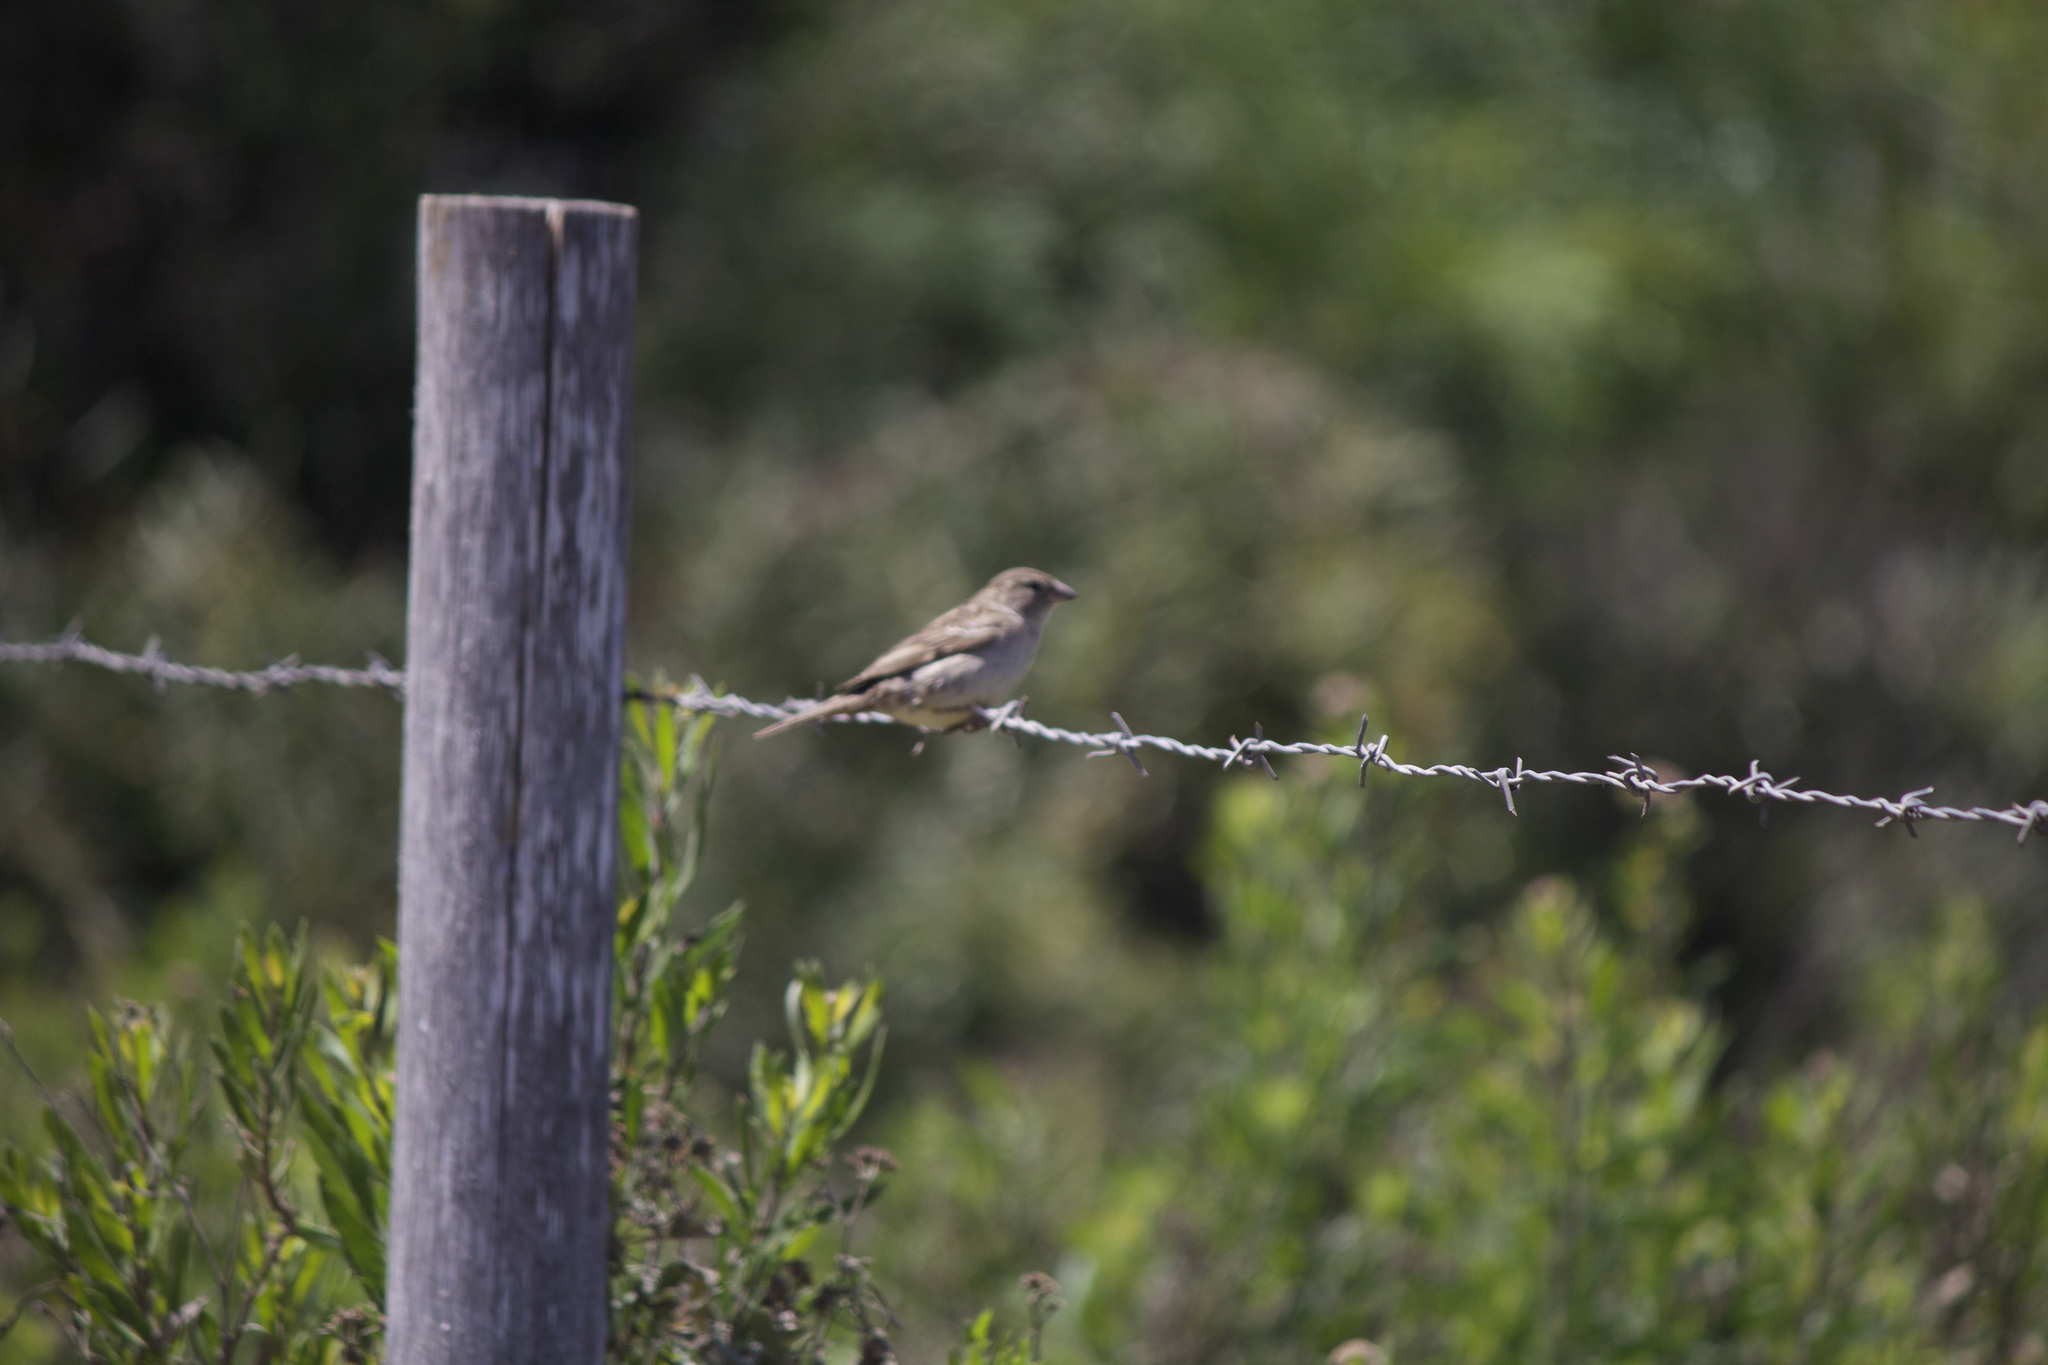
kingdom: Animalia
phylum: Chordata
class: Aves
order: Passeriformes
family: Passeridae
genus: Passer
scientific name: Passer domesticus
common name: House sparrow
